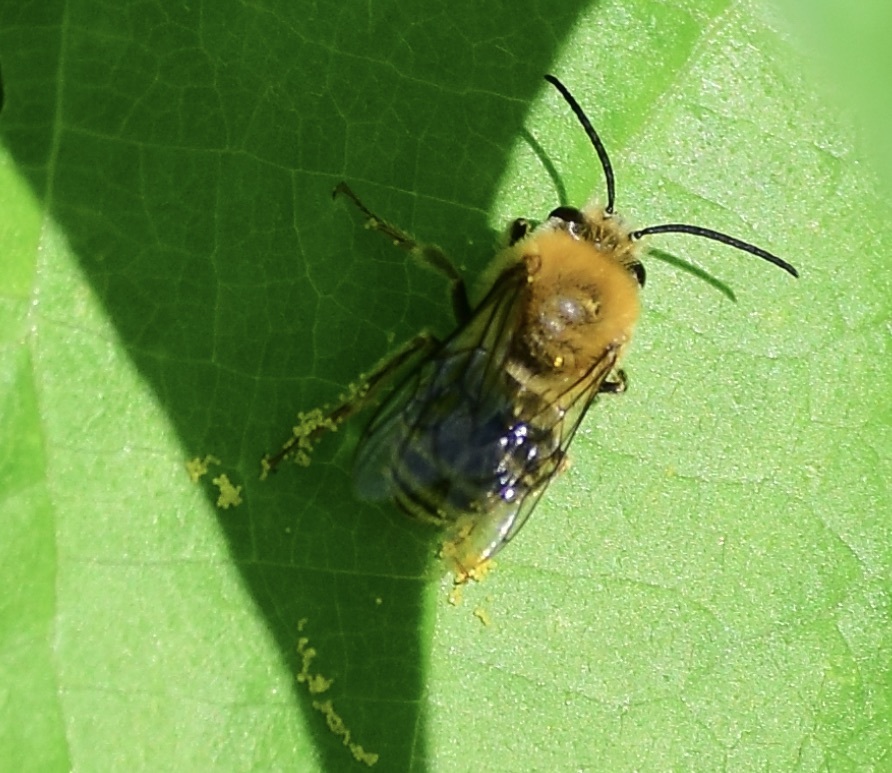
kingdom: Animalia
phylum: Arthropoda
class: Insecta
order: Hymenoptera
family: Apidae
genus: Peponapis
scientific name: Peponapis pruinosa
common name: Pruinose squash bee
